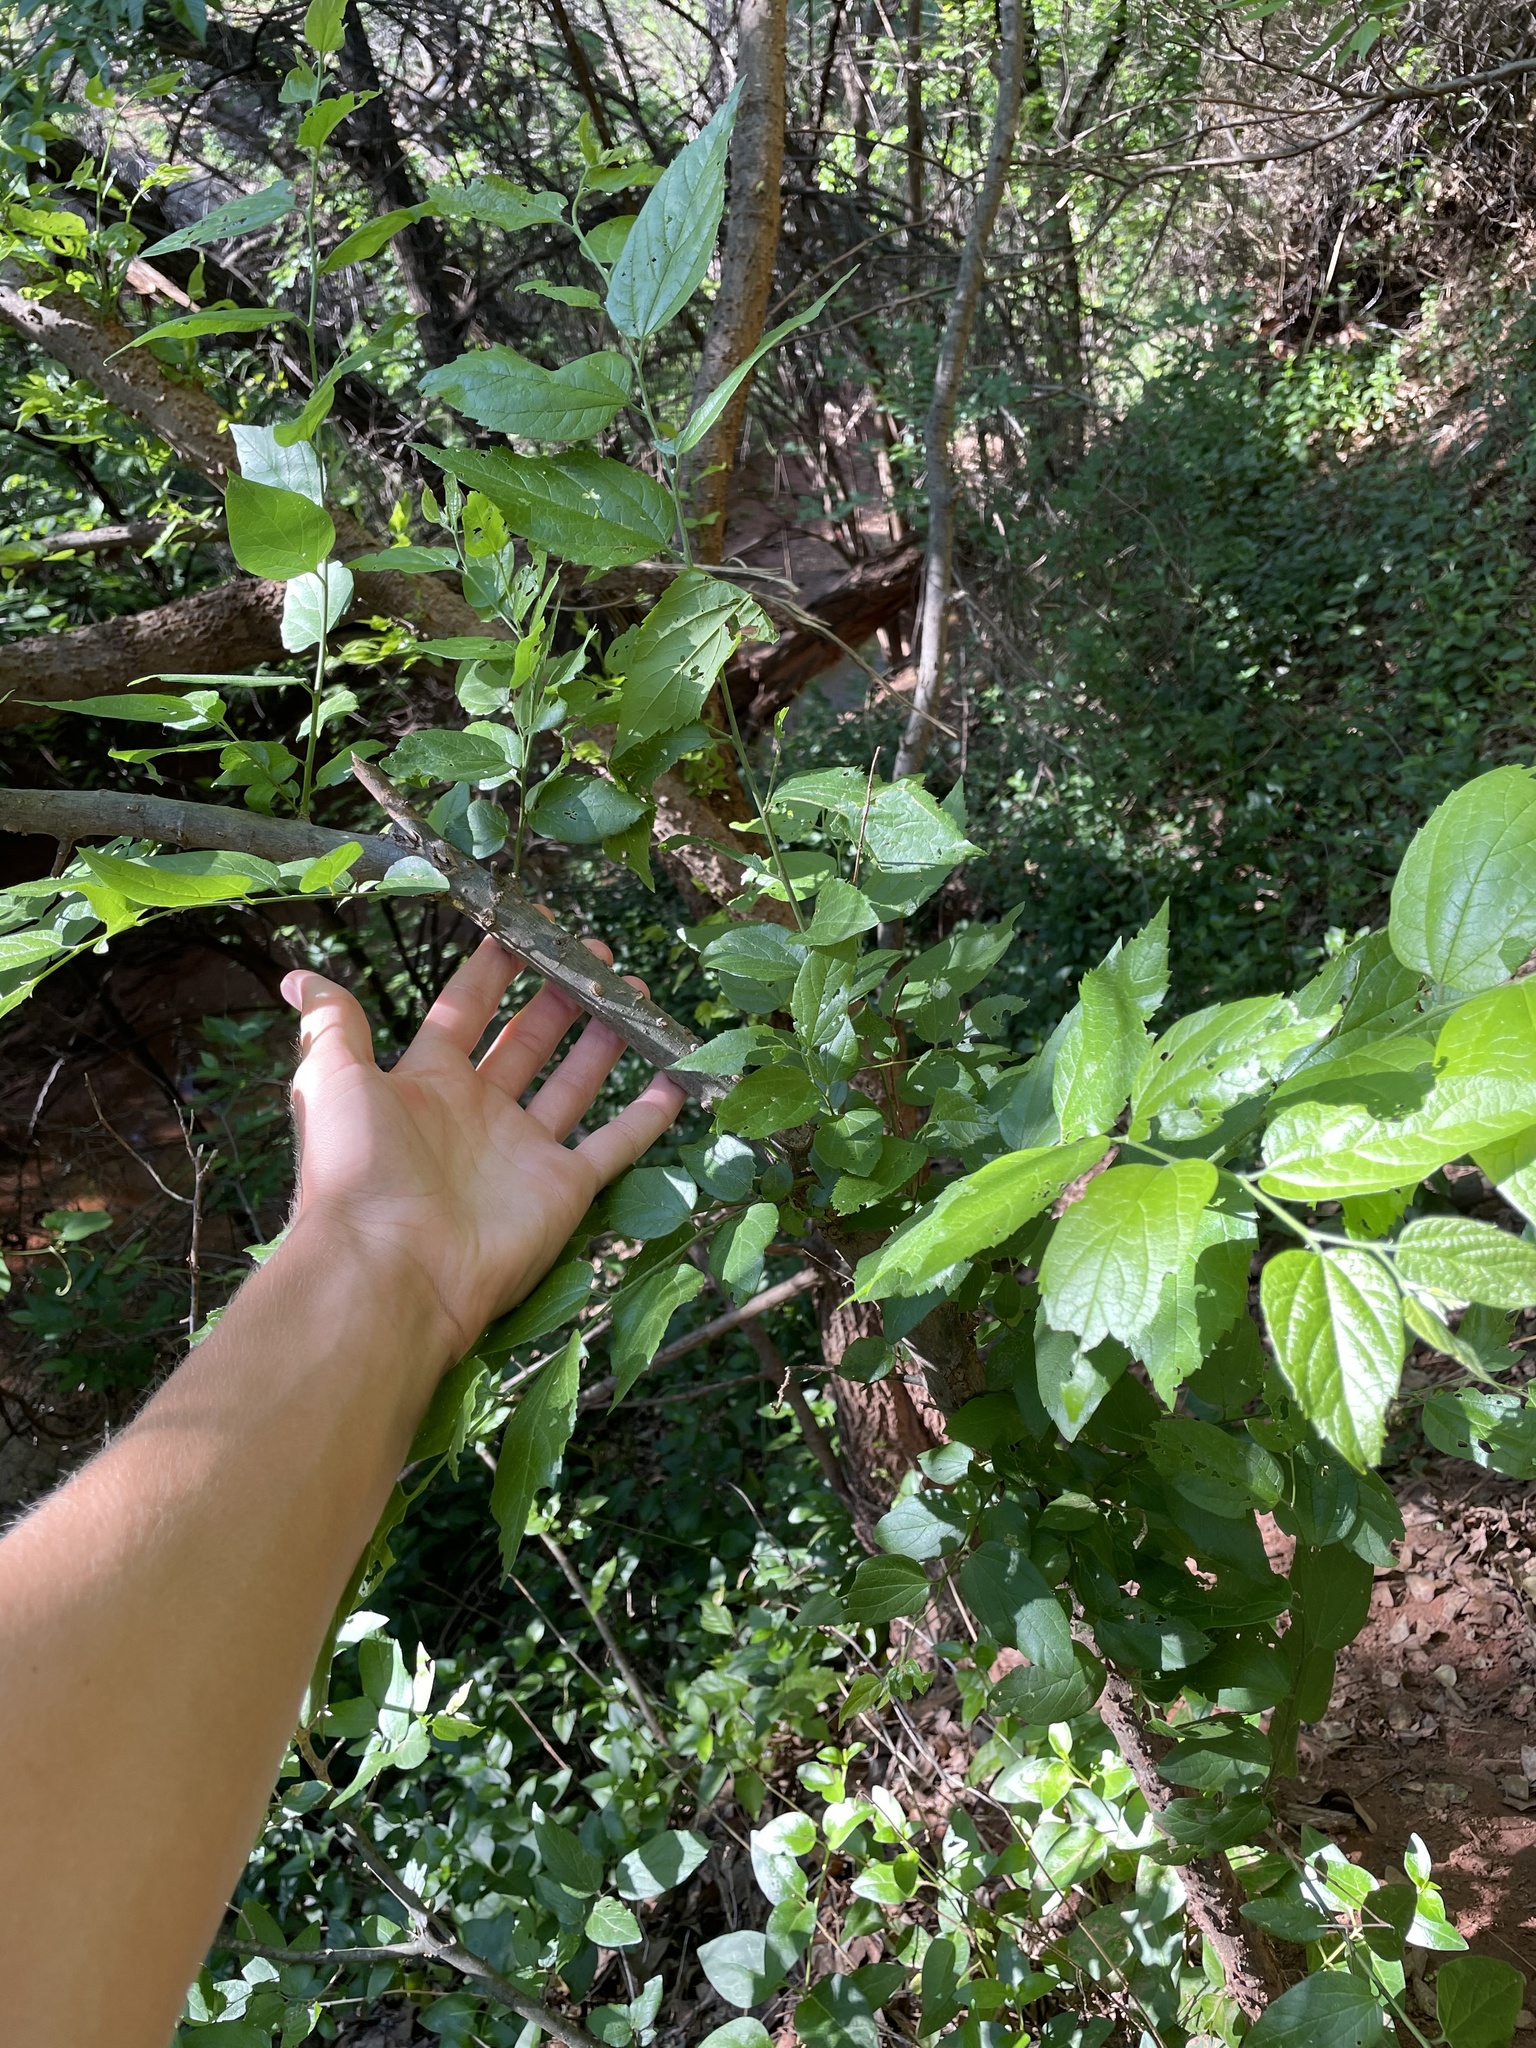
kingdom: Plantae
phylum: Tracheophyta
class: Magnoliopsida
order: Rosales
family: Cannabaceae
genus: Celtis
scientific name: Celtis reticulata
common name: Netleaf hackberry
